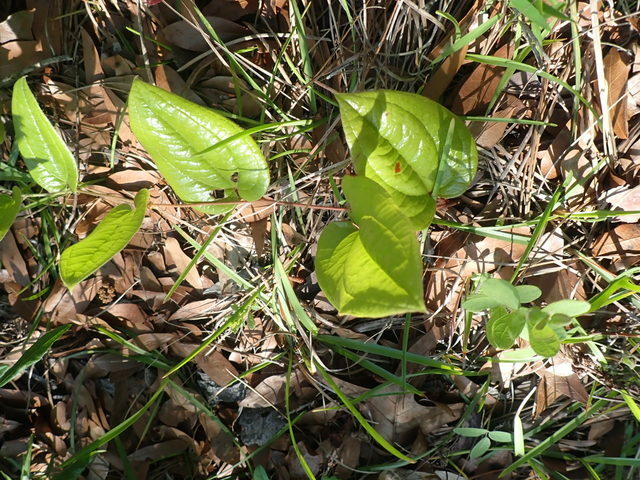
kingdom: Plantae
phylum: Tracheophyta
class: Liliopsida
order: Liliales
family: Smilacaceae
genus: Smilax
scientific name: Smilax pumila
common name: Sarsaparilla-vine
